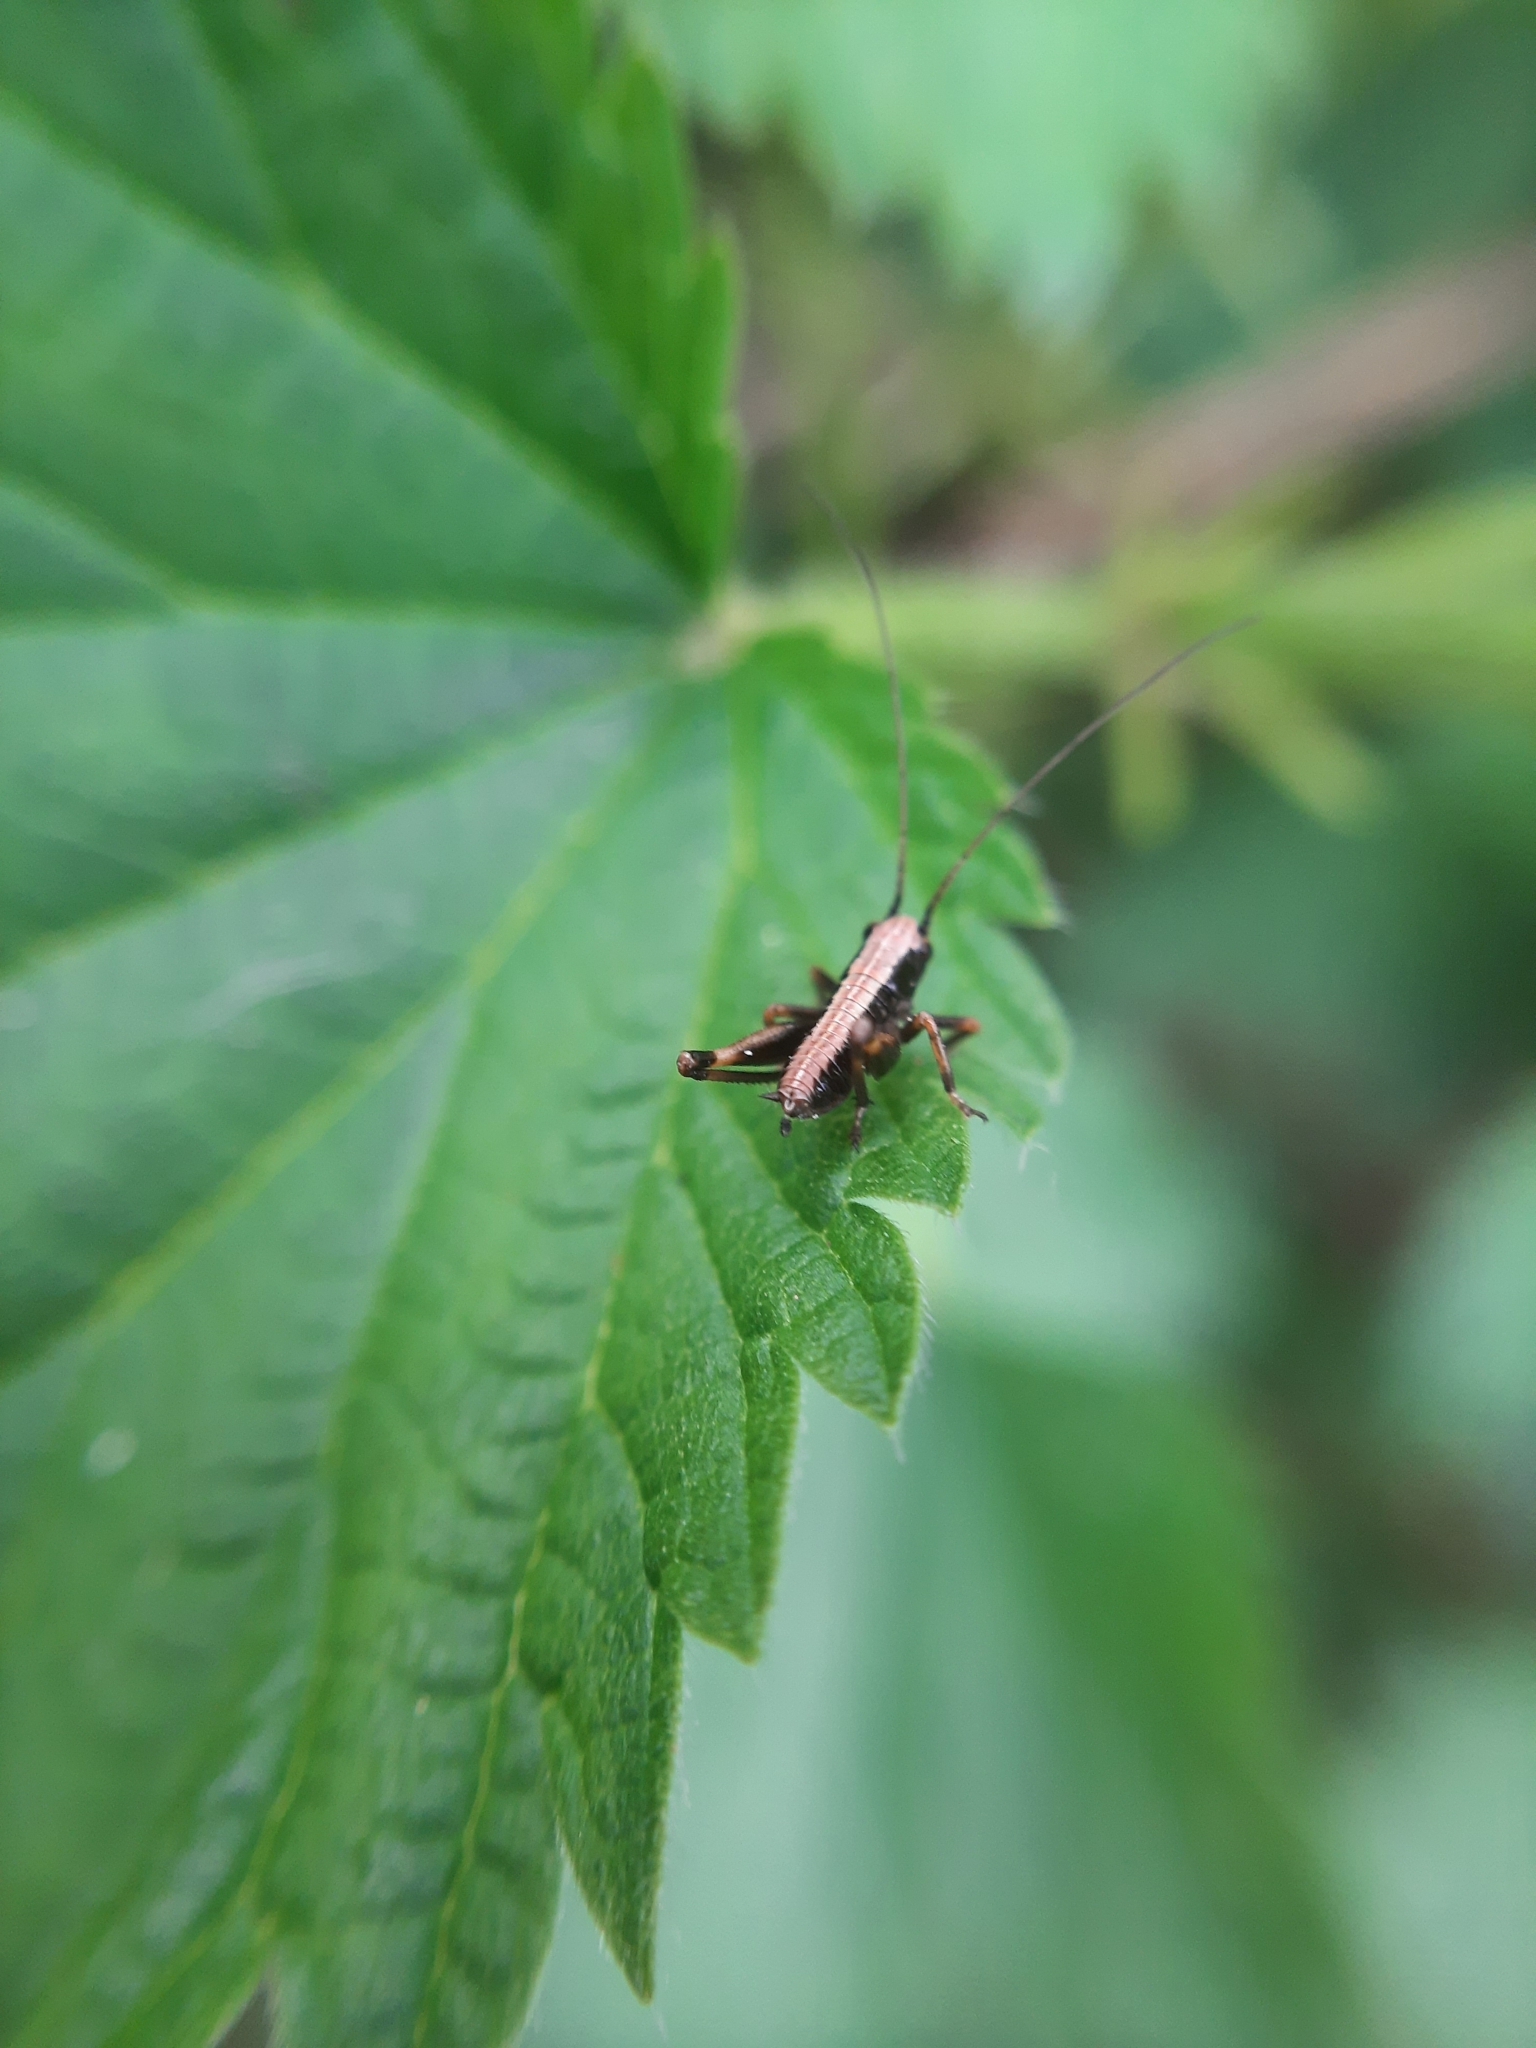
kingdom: Animalia
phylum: Arthropoda
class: Insecta
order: Orthoptera
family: Tettigoniidae
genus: Pholidoptera
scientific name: Pholidoptera griseoaptera
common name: Dark bush-cricket
